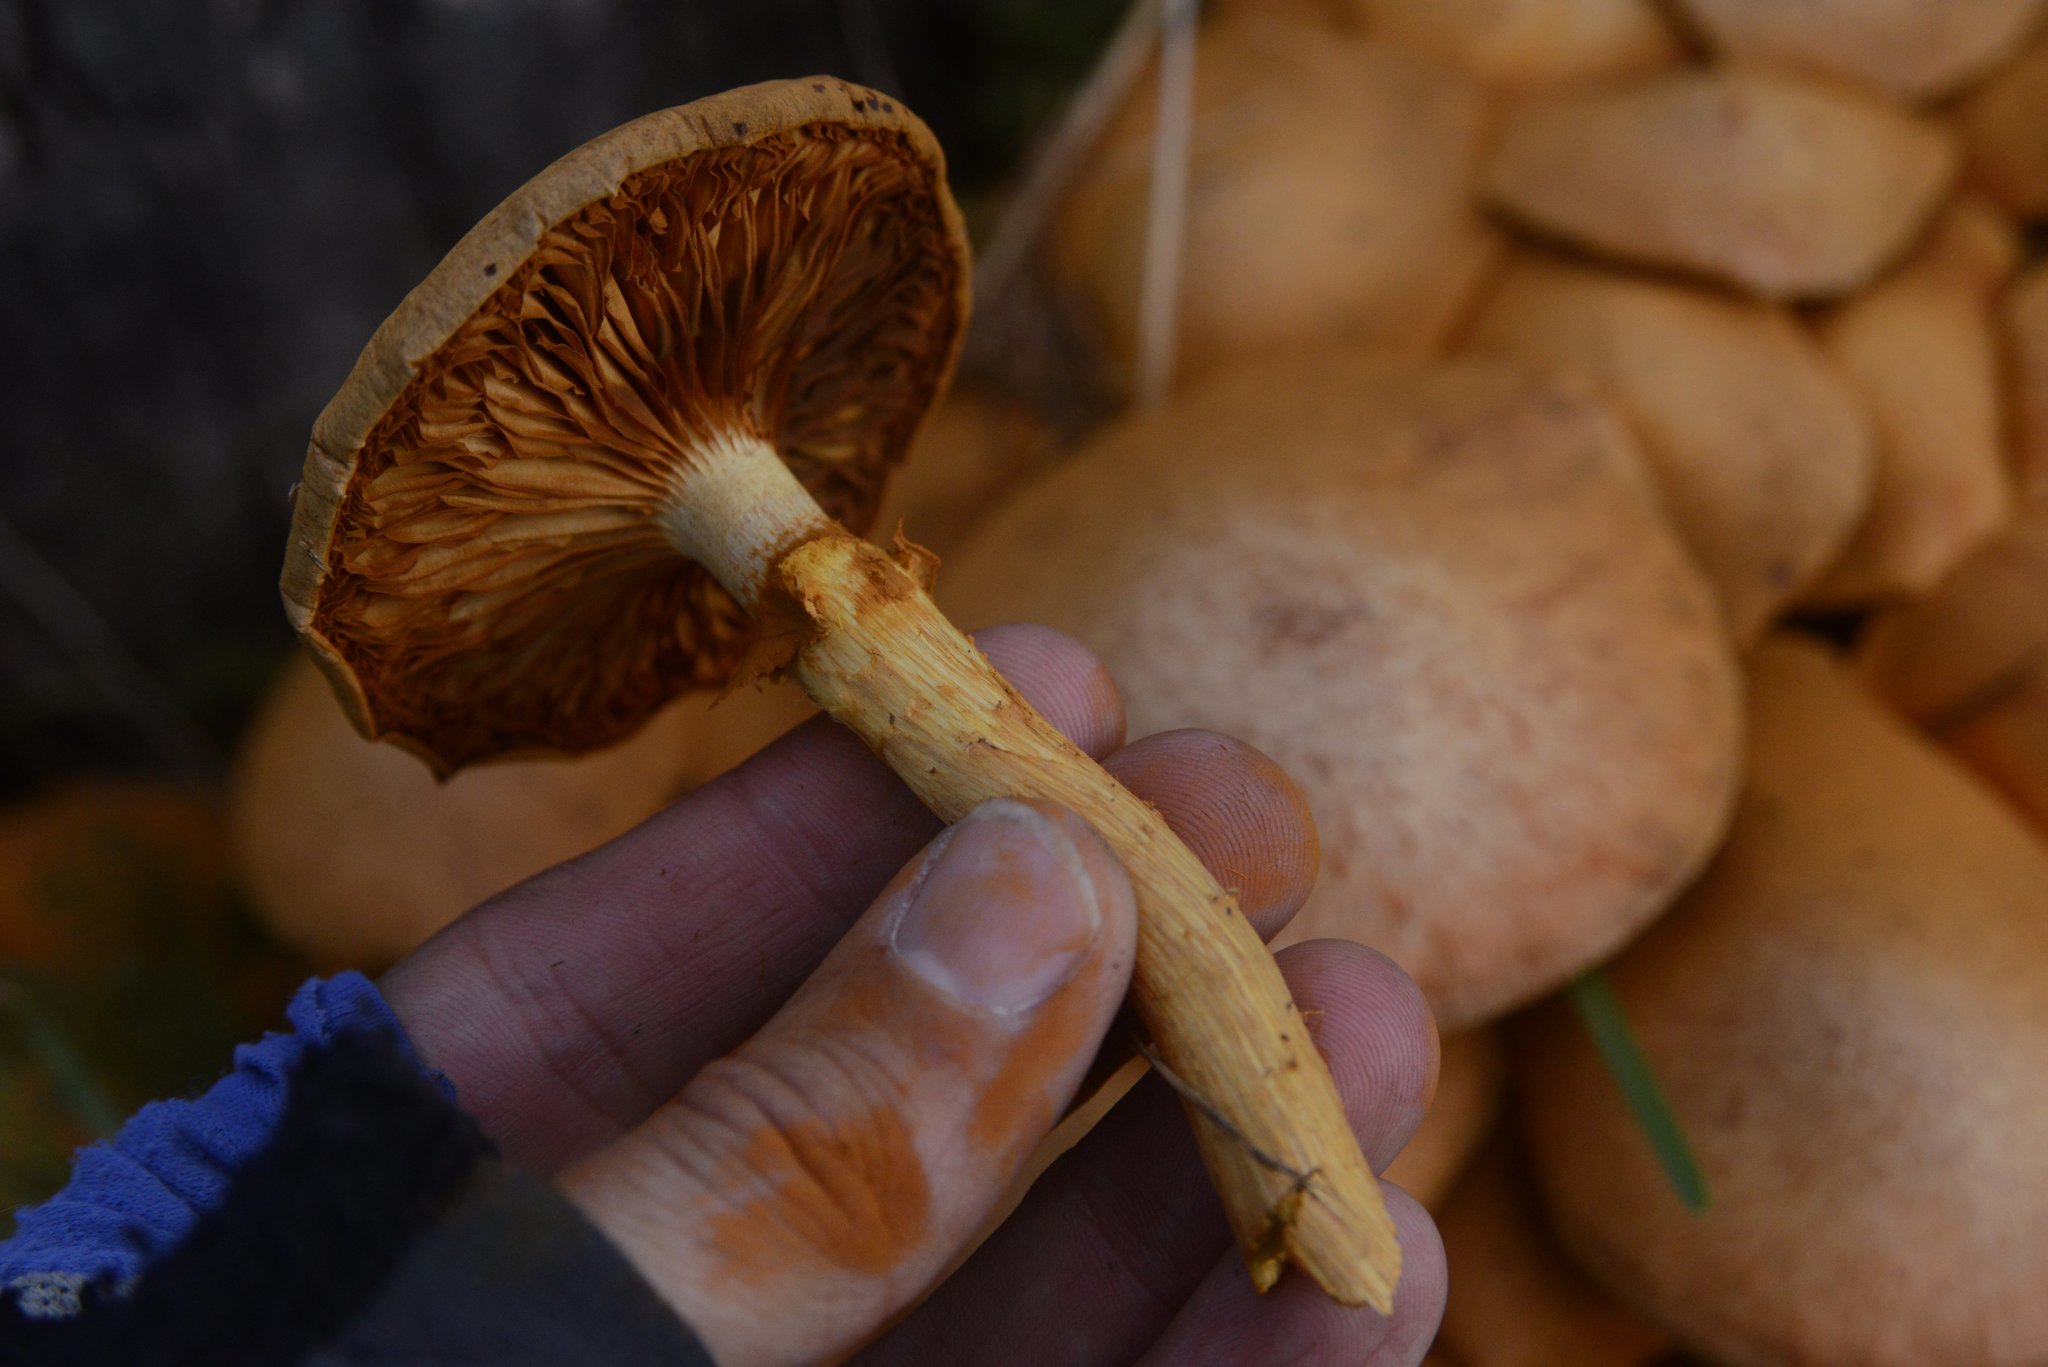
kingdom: Fungi
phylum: Basidiomycota
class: Agaricomycetes
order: Agaricales
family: Hymenogastraceae
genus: Gymnopilus
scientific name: Gymnopilus junonius
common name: Spectacular rustgill
